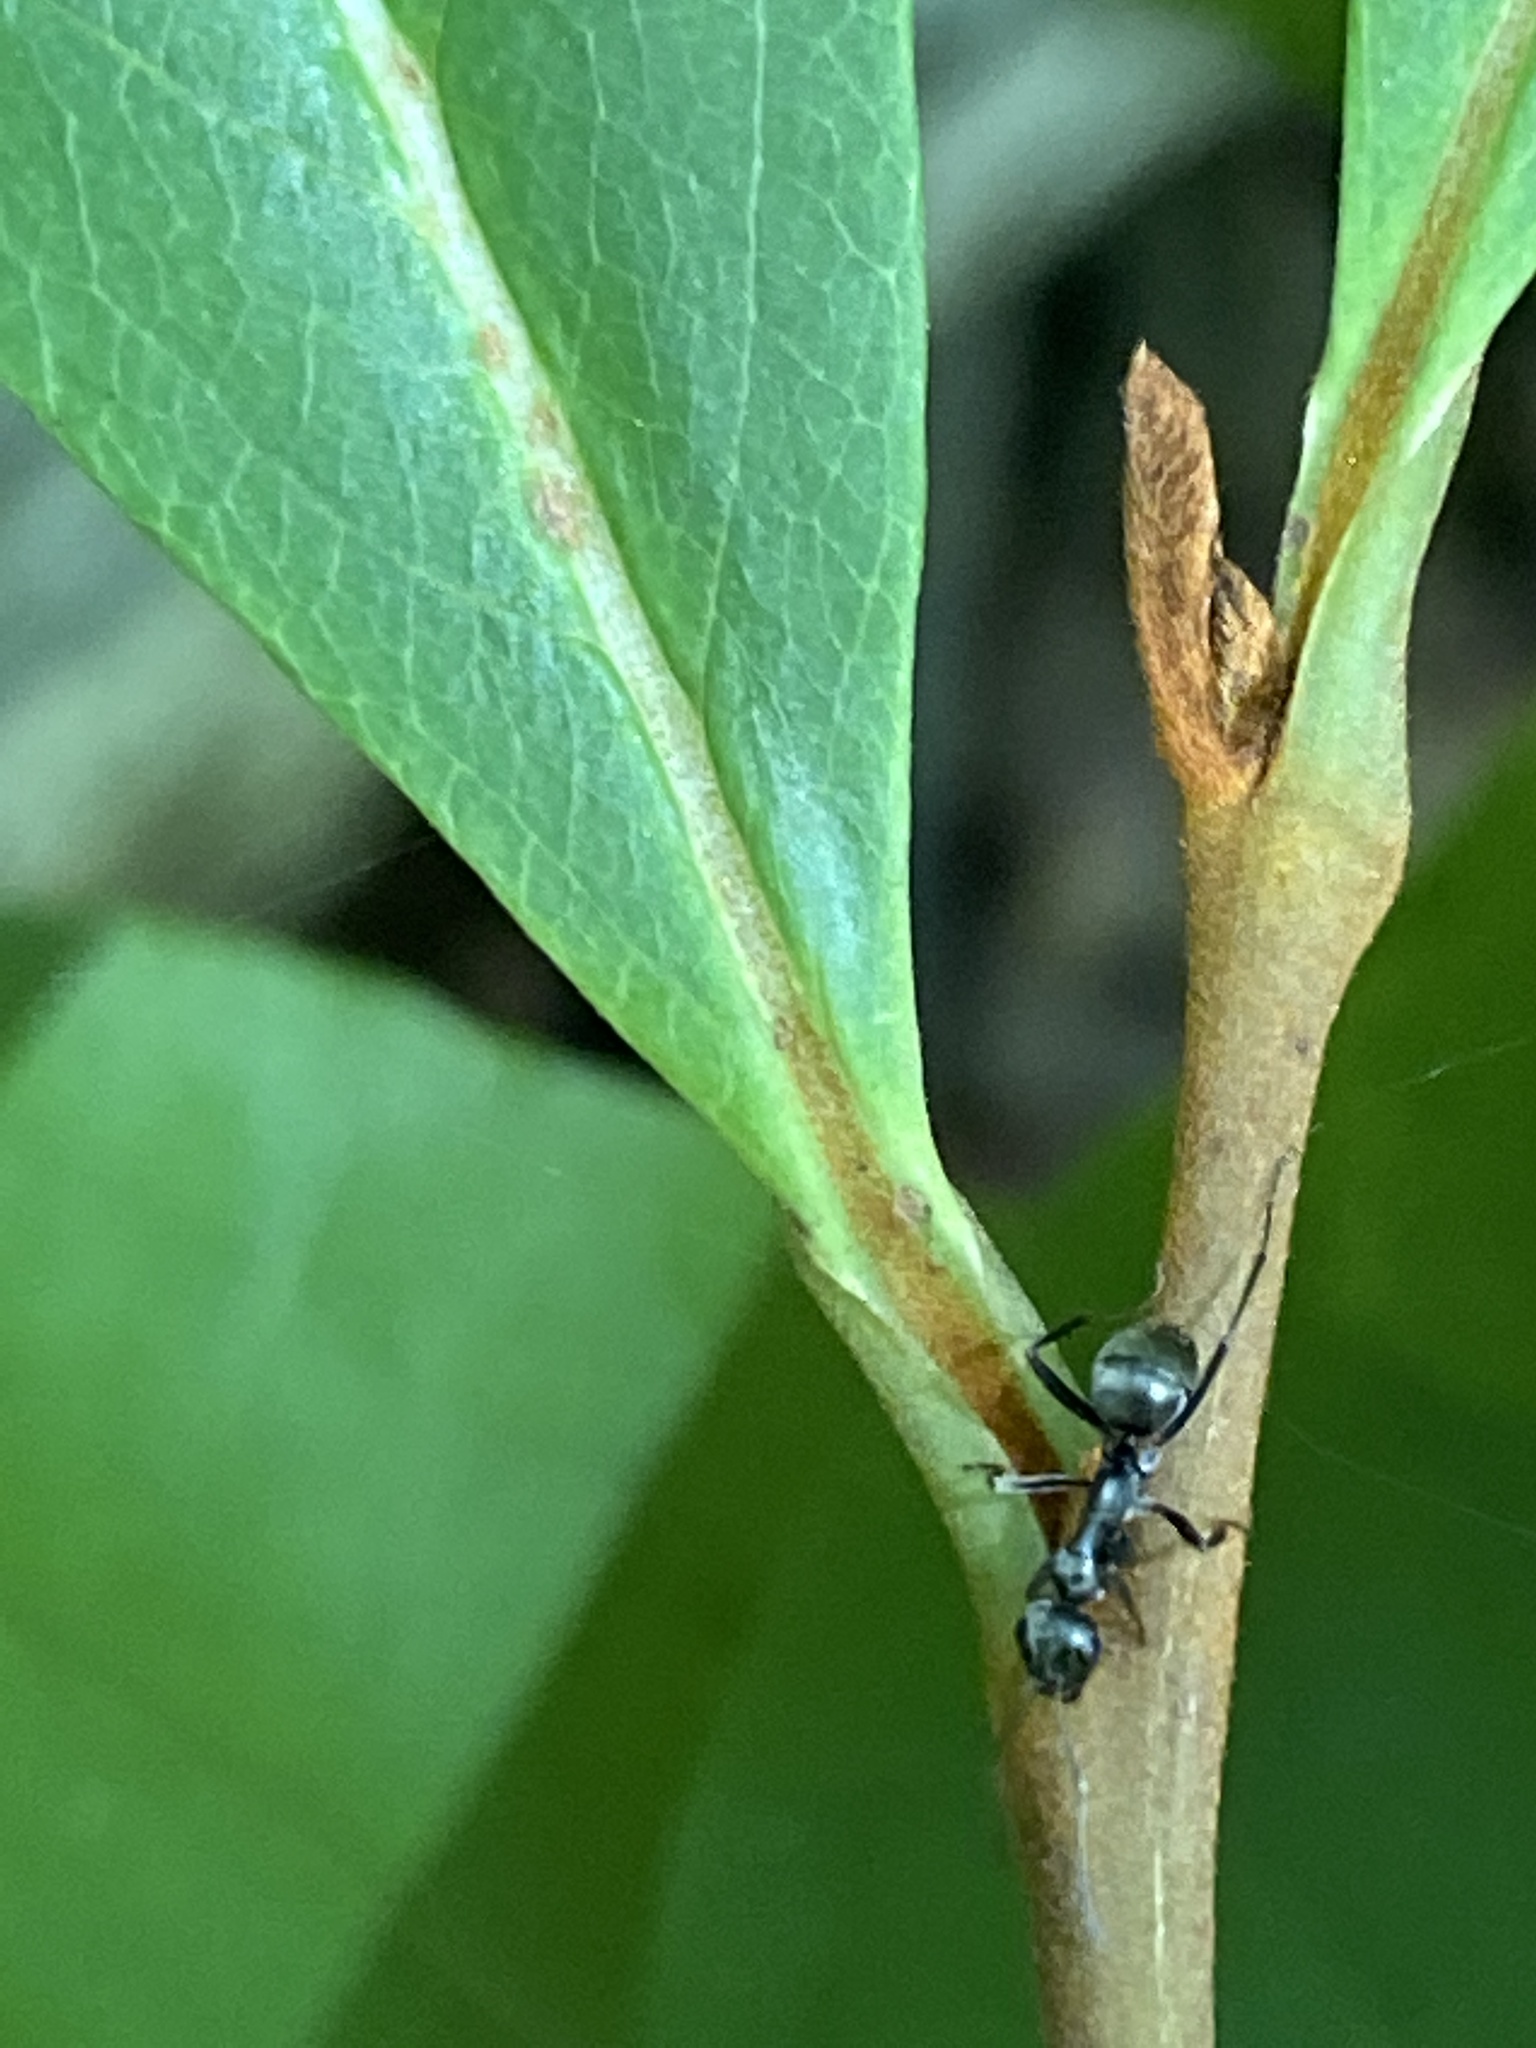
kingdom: Plantae
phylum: Tracheophyta
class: Magnoliopsida
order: Magnoliales
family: Annonaceae
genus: Asimina
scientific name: Asimina parviflora
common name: Dwarf pawpaw
